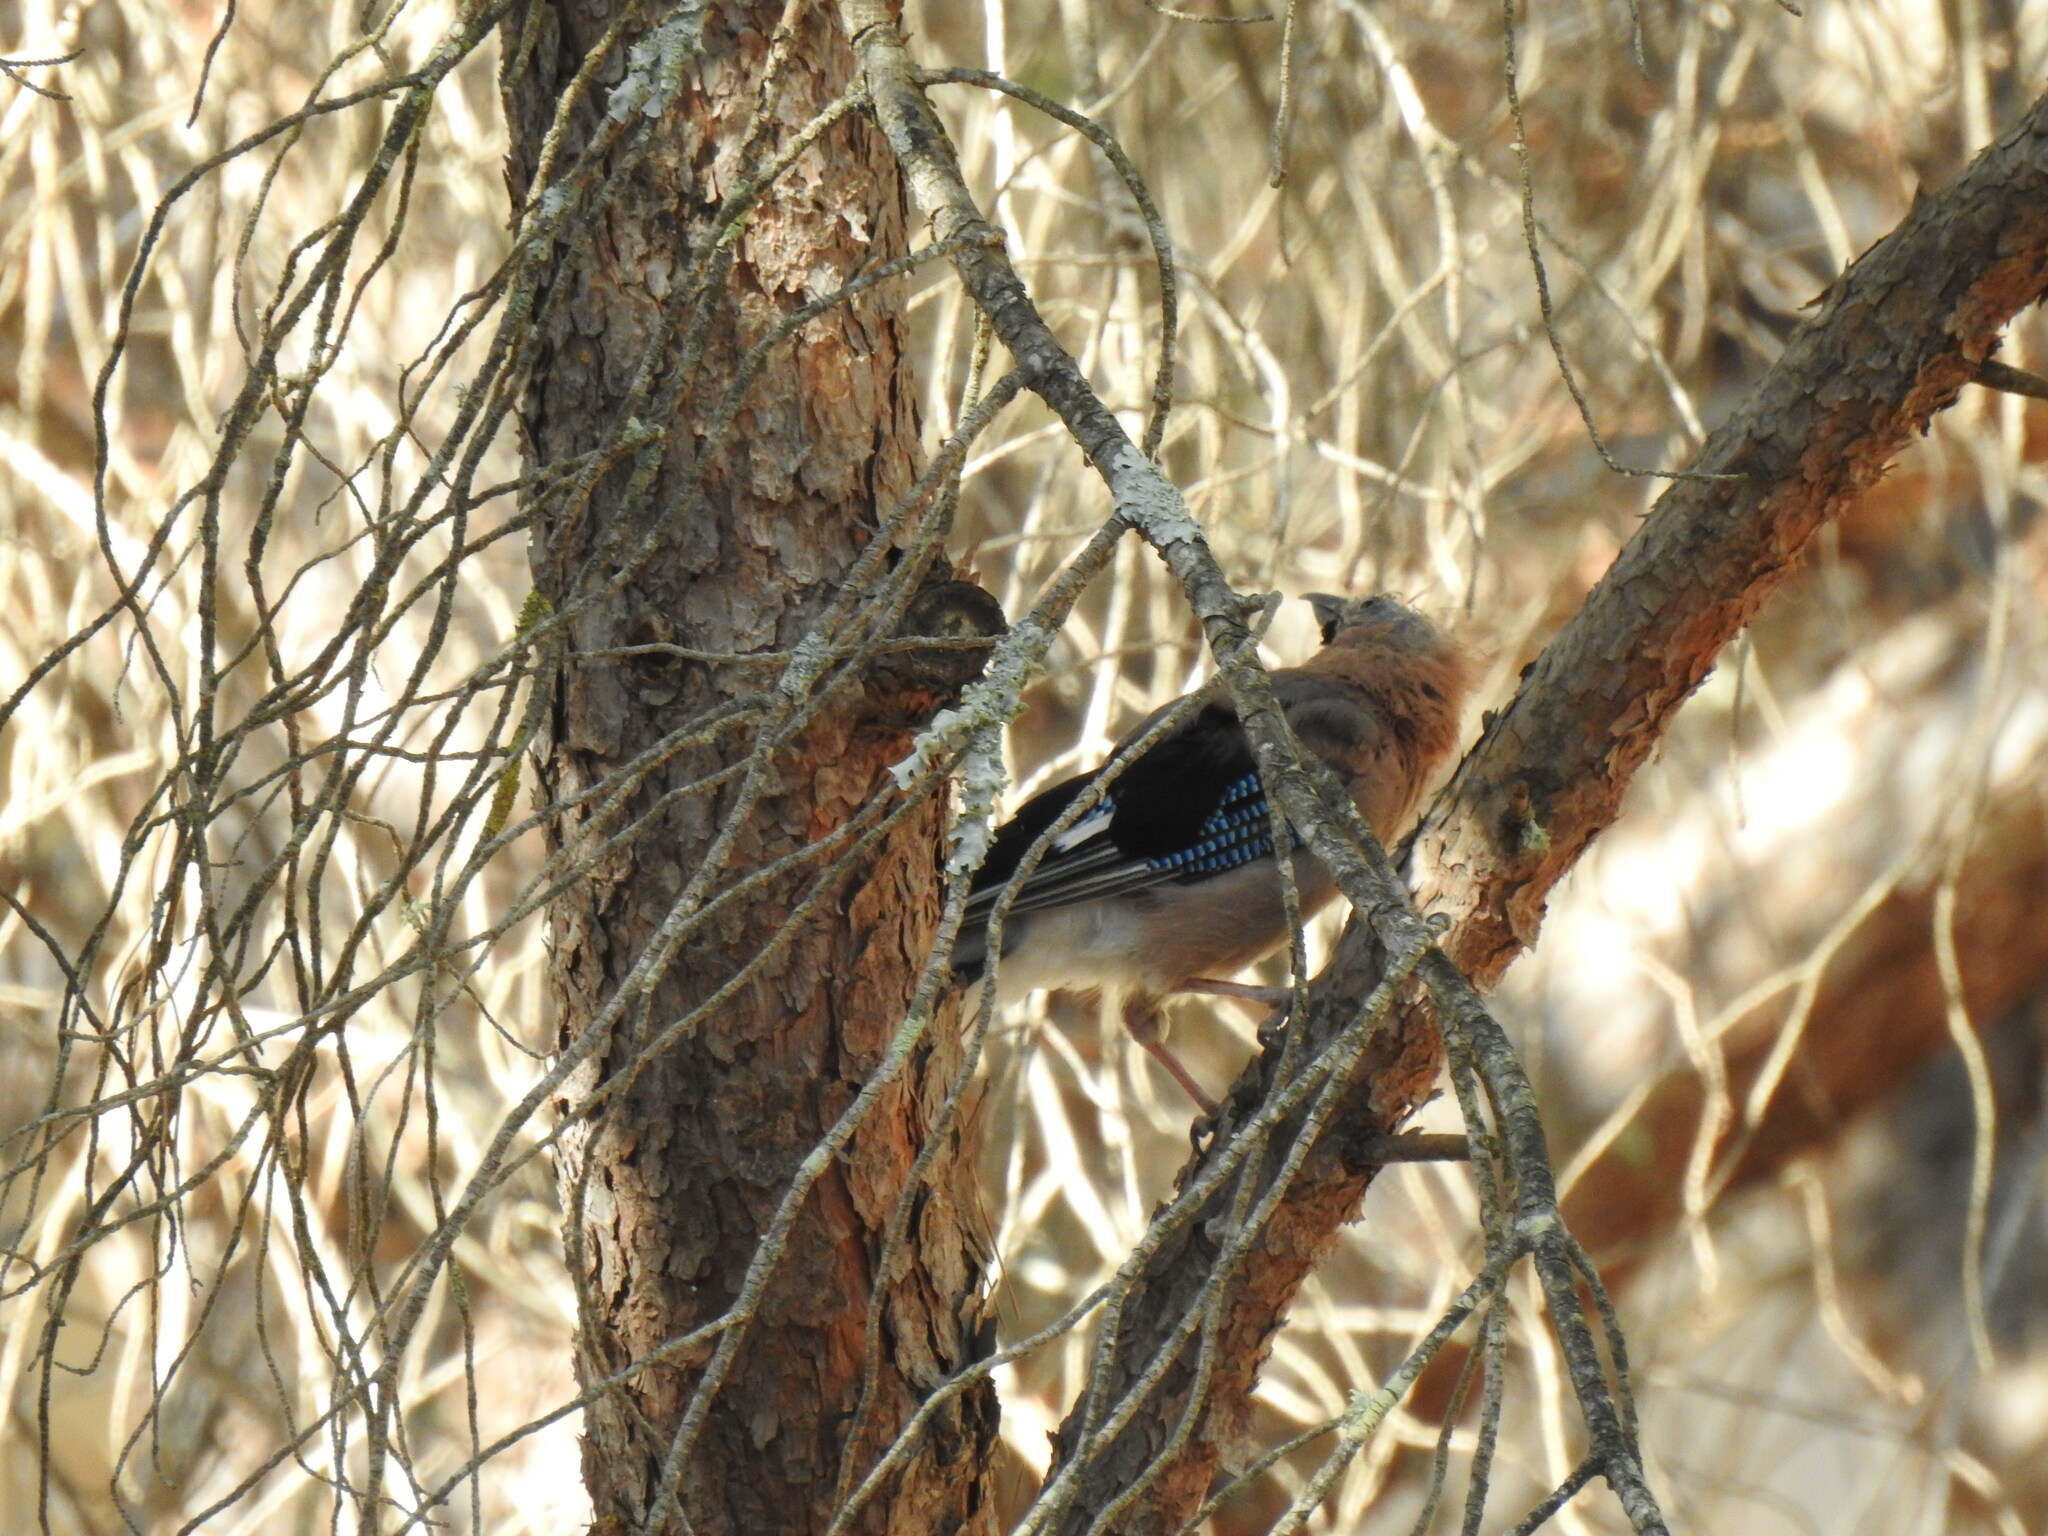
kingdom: Animalia
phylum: Chordata
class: Aves
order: Passeriformes
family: Corvidae
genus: Garrulus
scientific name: Garrulus glandarius
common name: Eurasian jay
